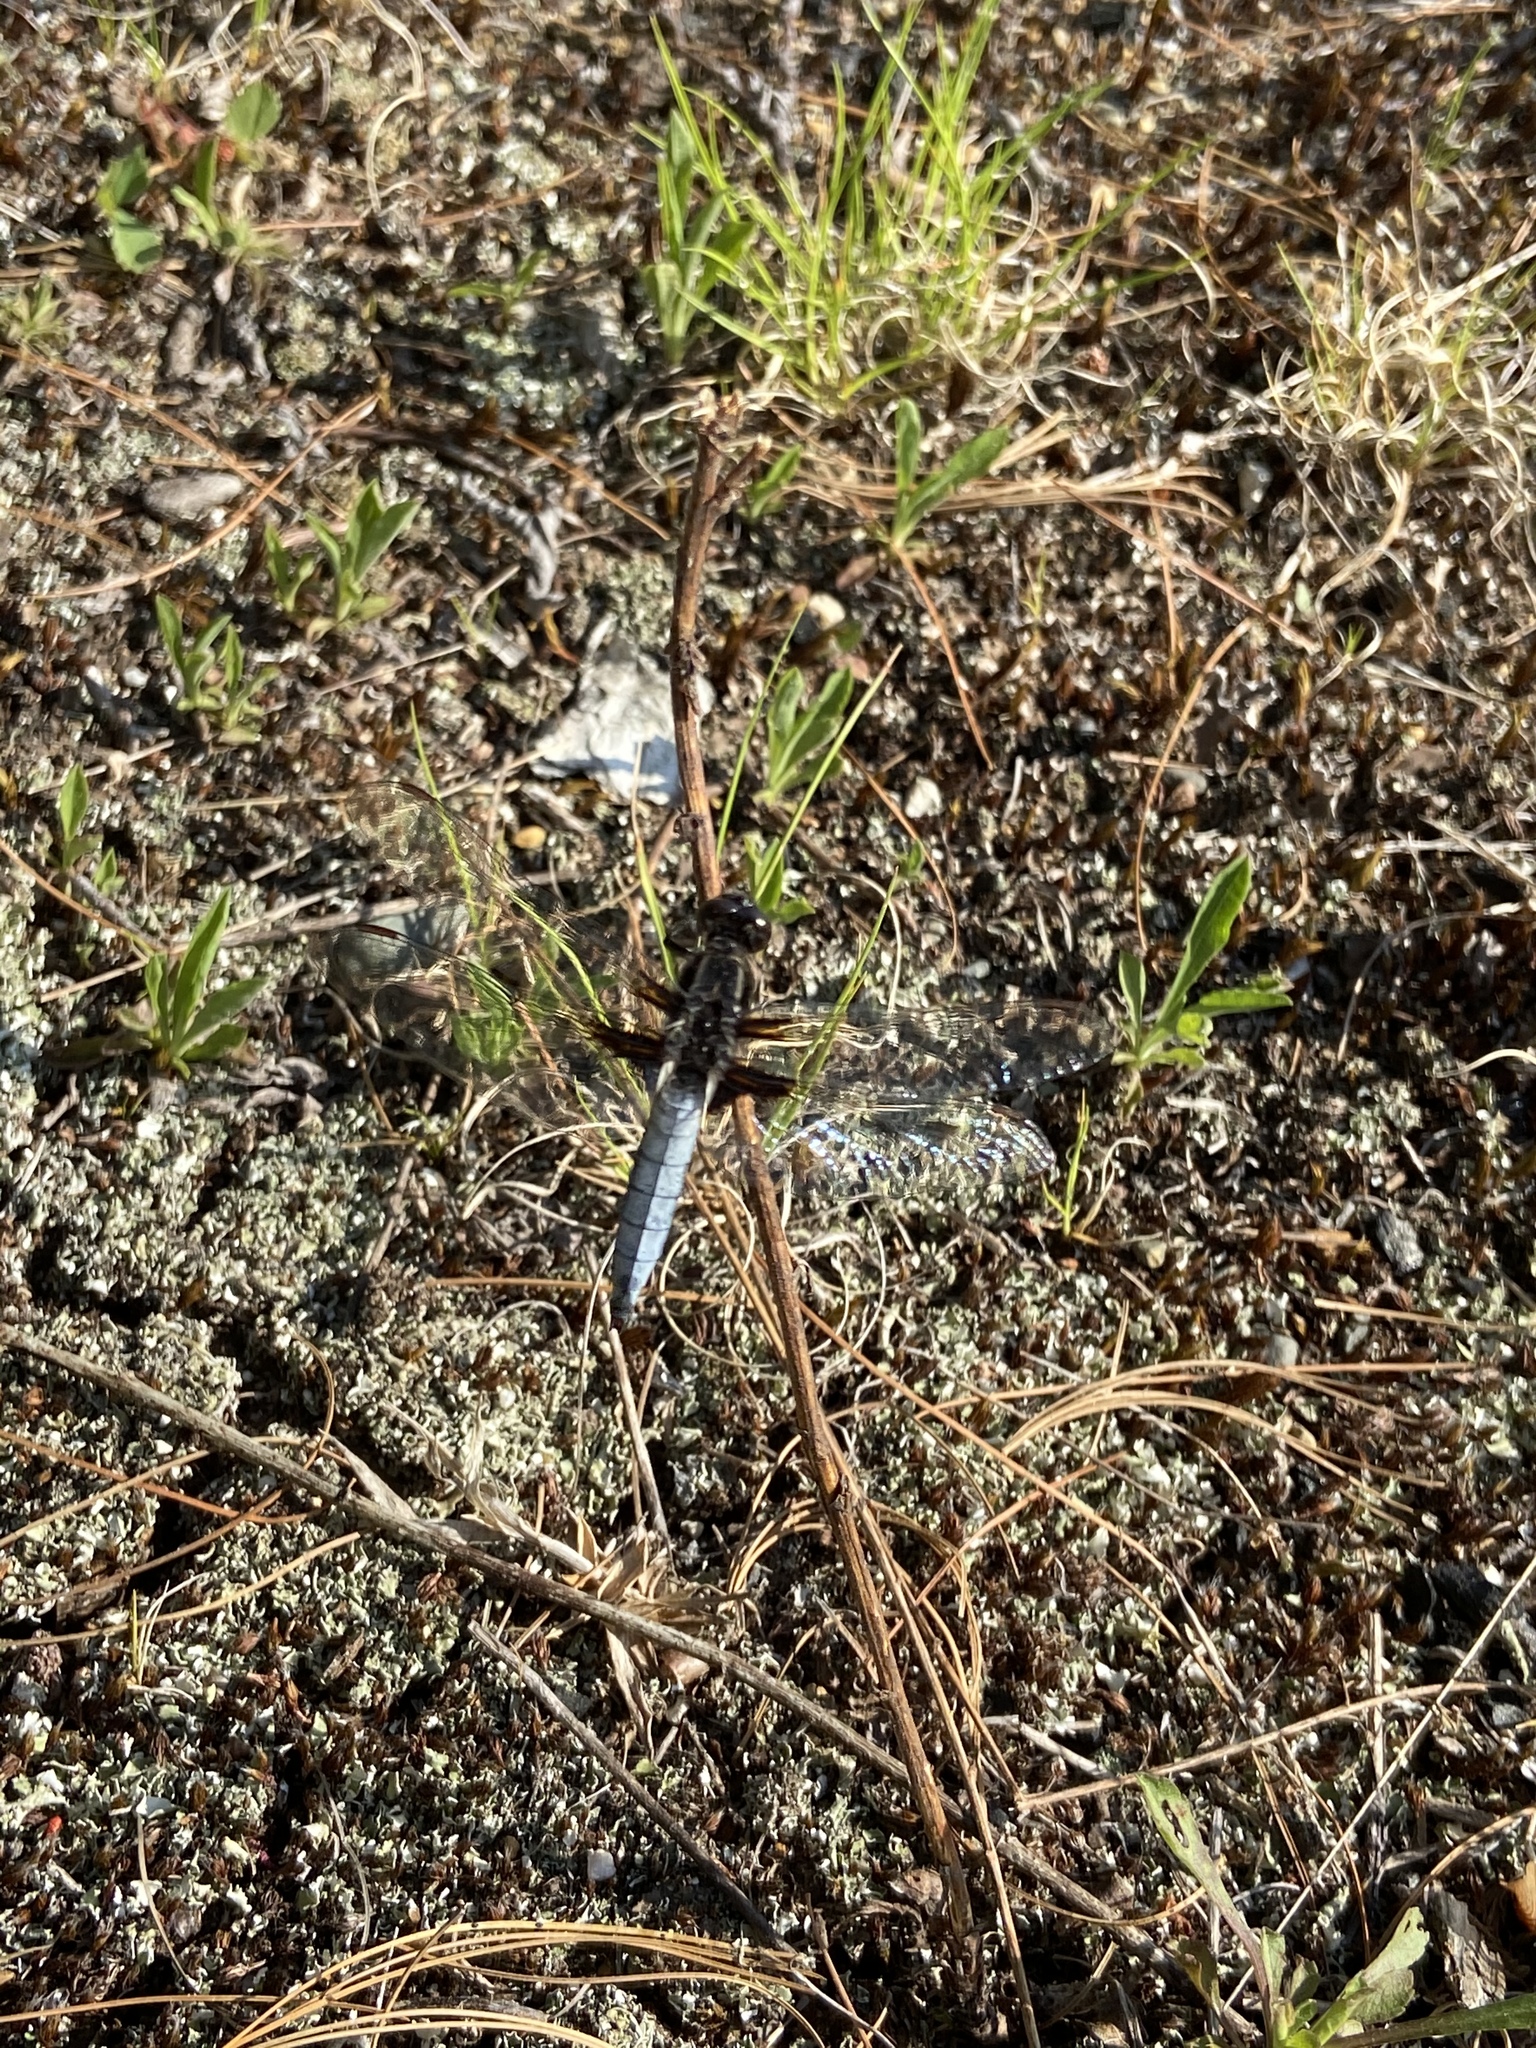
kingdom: Animalia
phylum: Arthropoda
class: Insecta
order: Odonata
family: Libellulidae
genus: Ladona
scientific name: Ladona exusta
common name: Libellule embrasée
